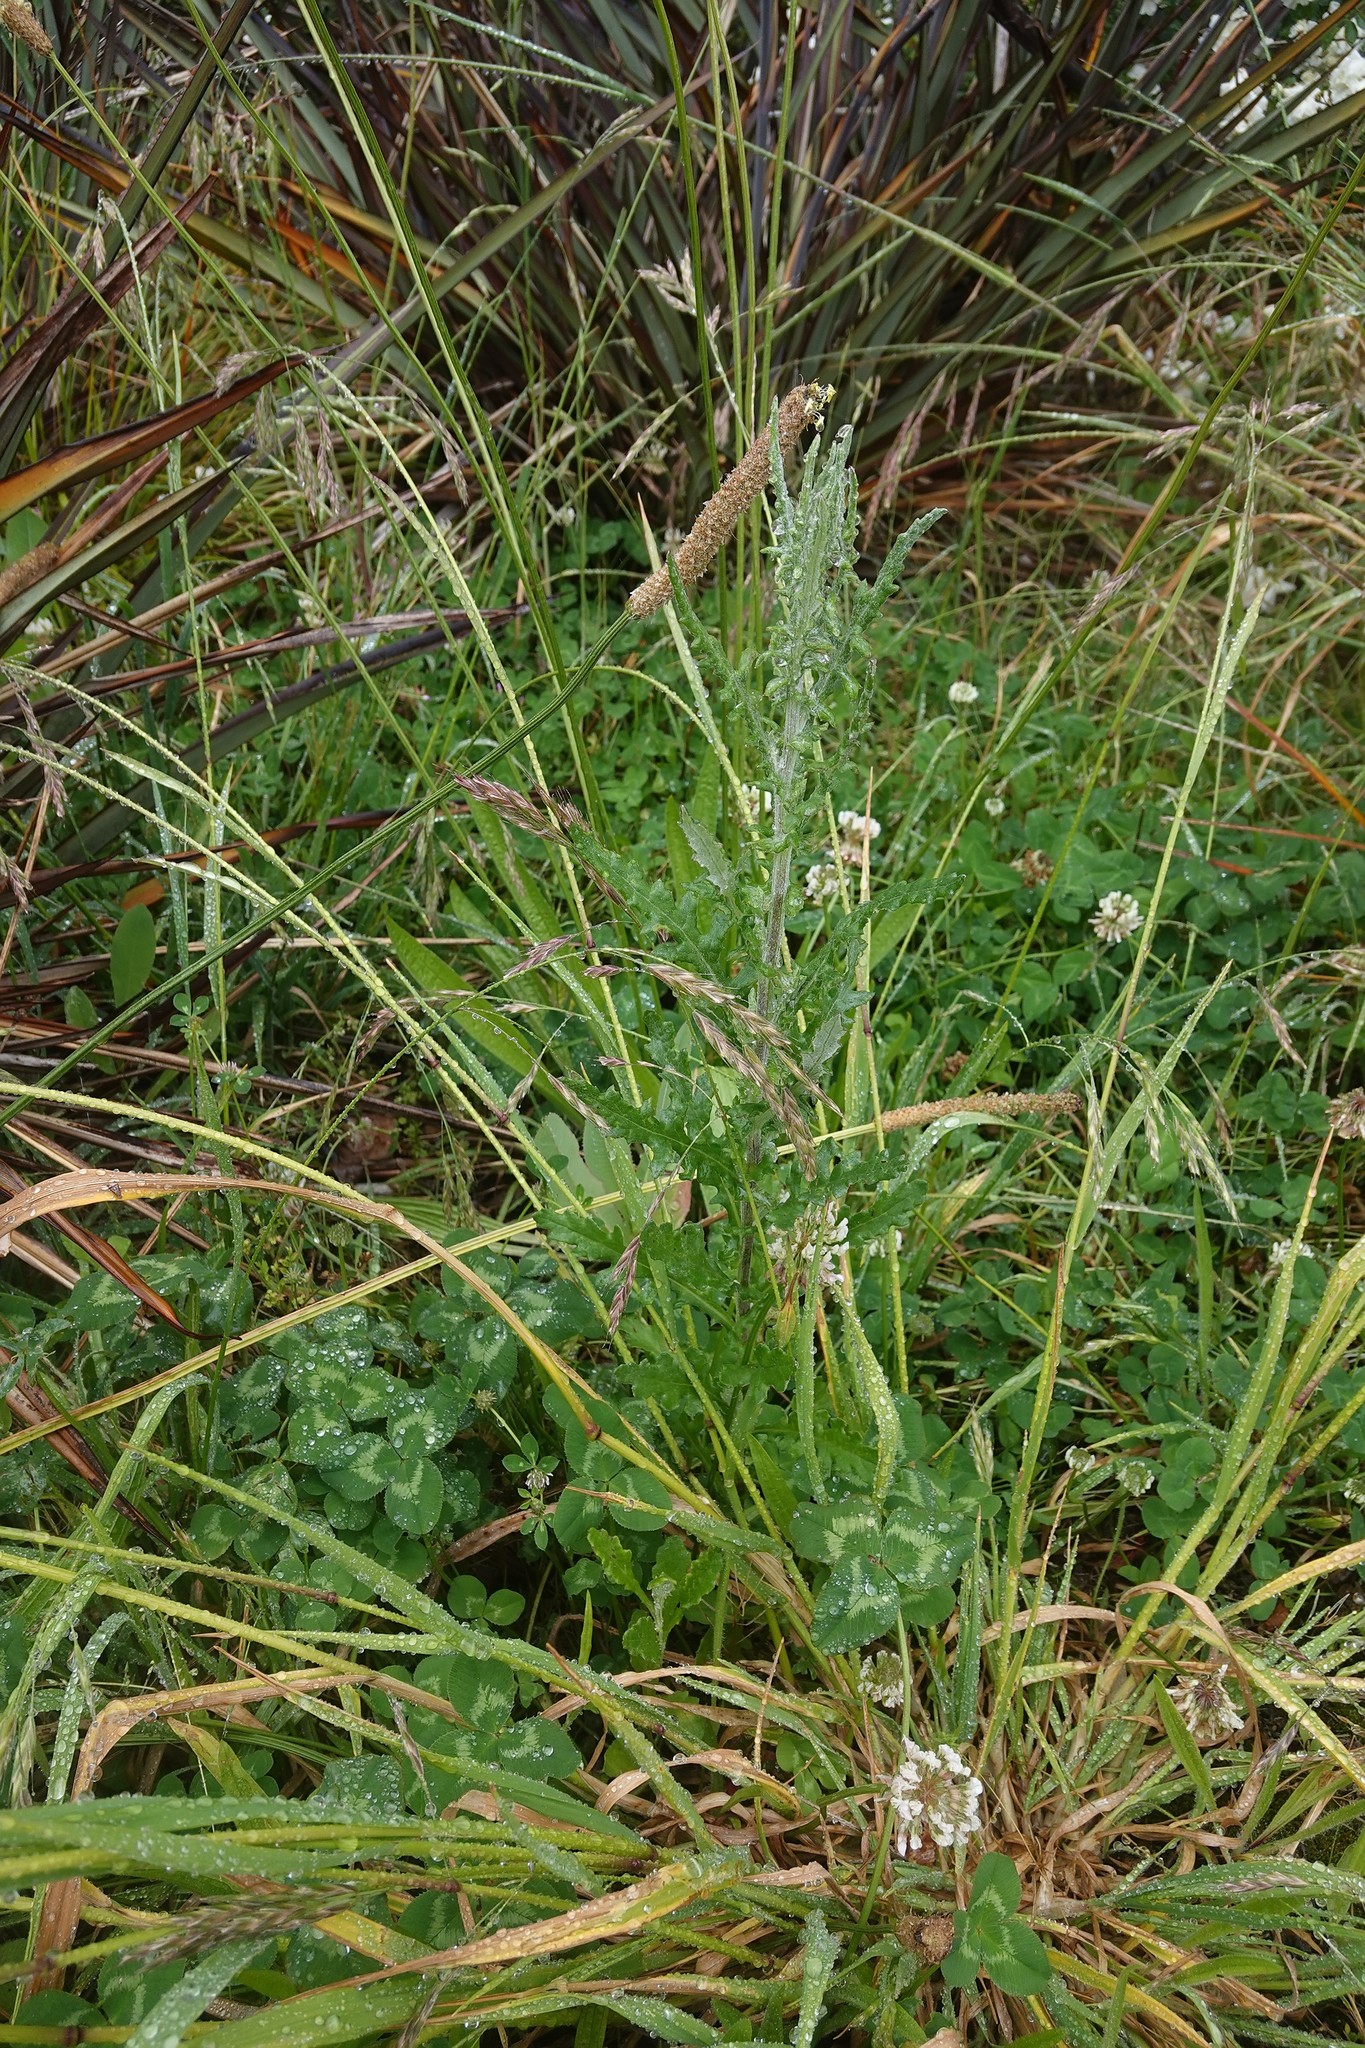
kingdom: Plantae
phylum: Tracheophyta
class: Magnoliopsida
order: Asterales
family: Asteraceae
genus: Senecio
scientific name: Senecio glomeratus
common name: Cutleaf burnweed
